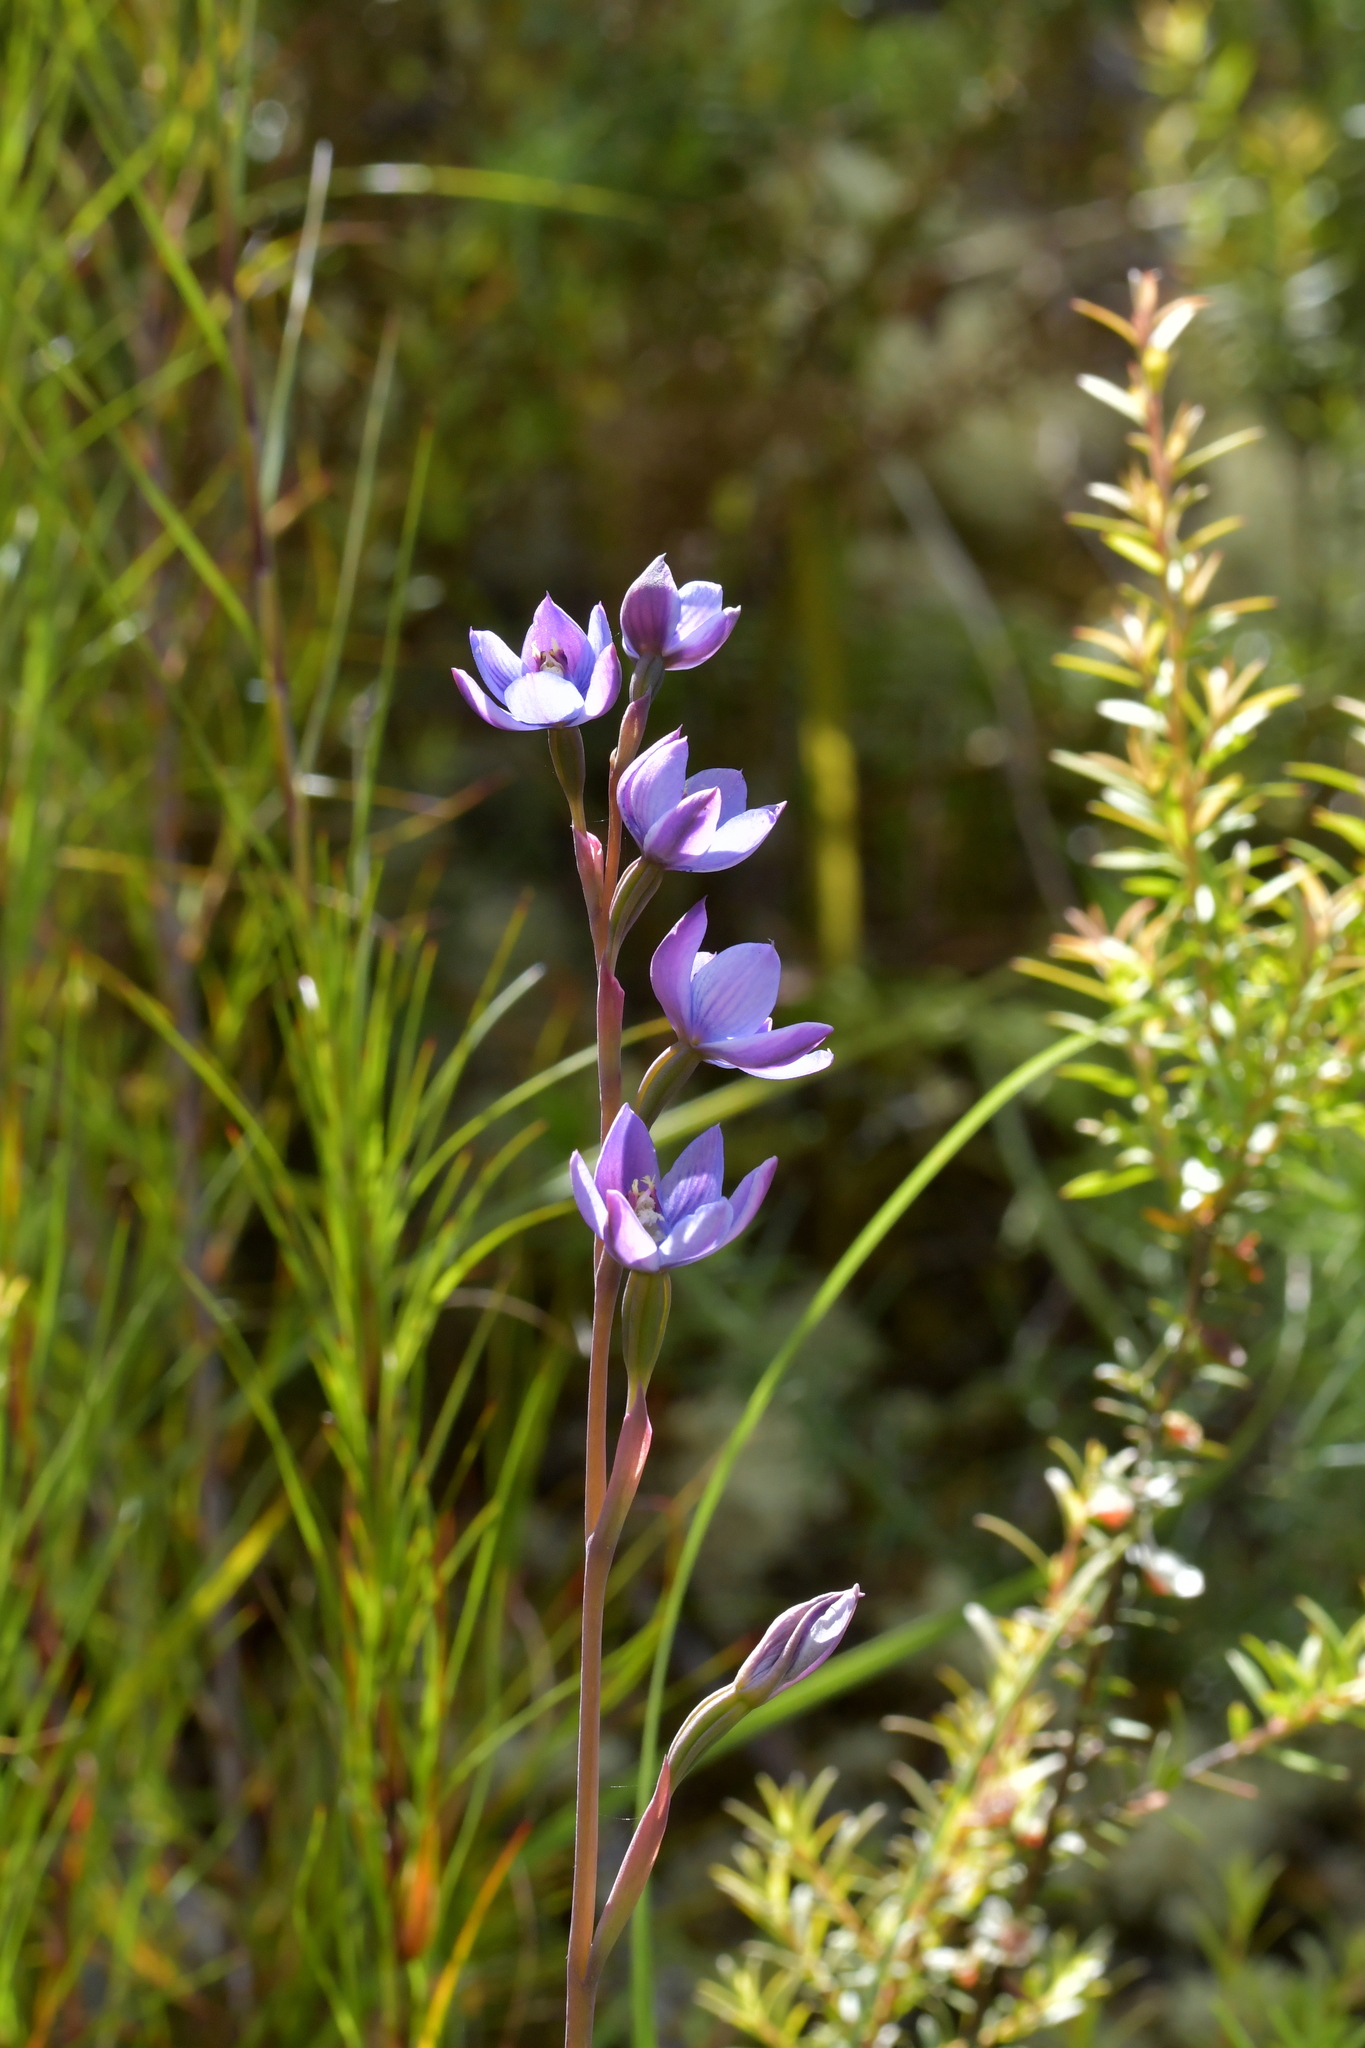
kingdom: Plantae
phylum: Tracheophyta
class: Liliopsida
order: Asparagales
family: Orchidaceae
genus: Thelymitra
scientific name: Thelymitra pulchella
